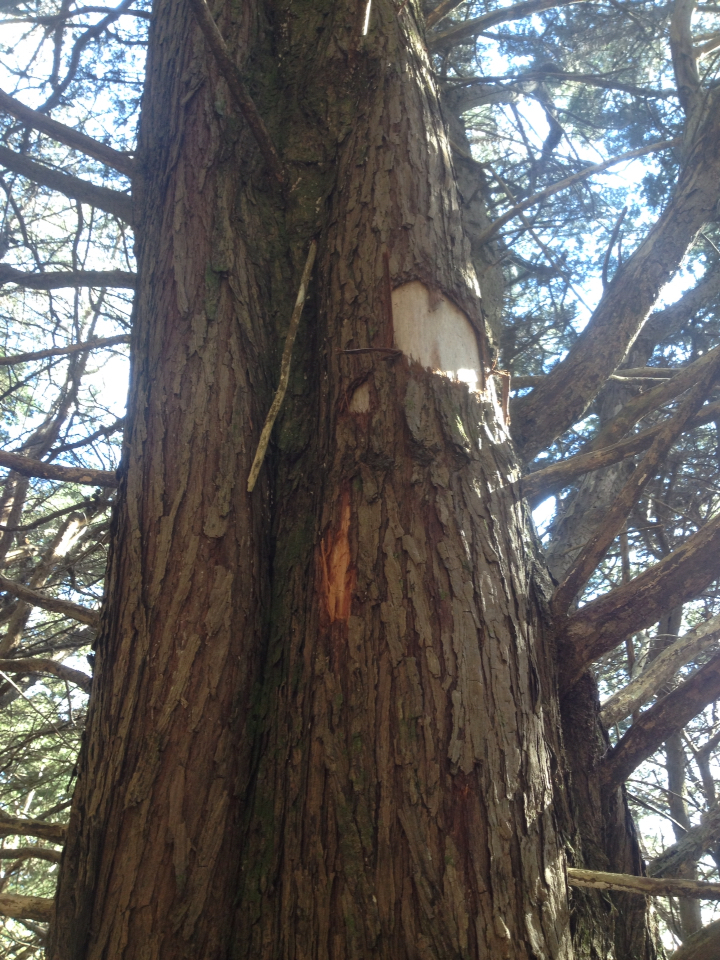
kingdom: Animalia
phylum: Chordata
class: Aves
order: Psittaciformes
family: Psittacidae
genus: Nestor
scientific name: Nestor meridionalis
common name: New zealand kaka
